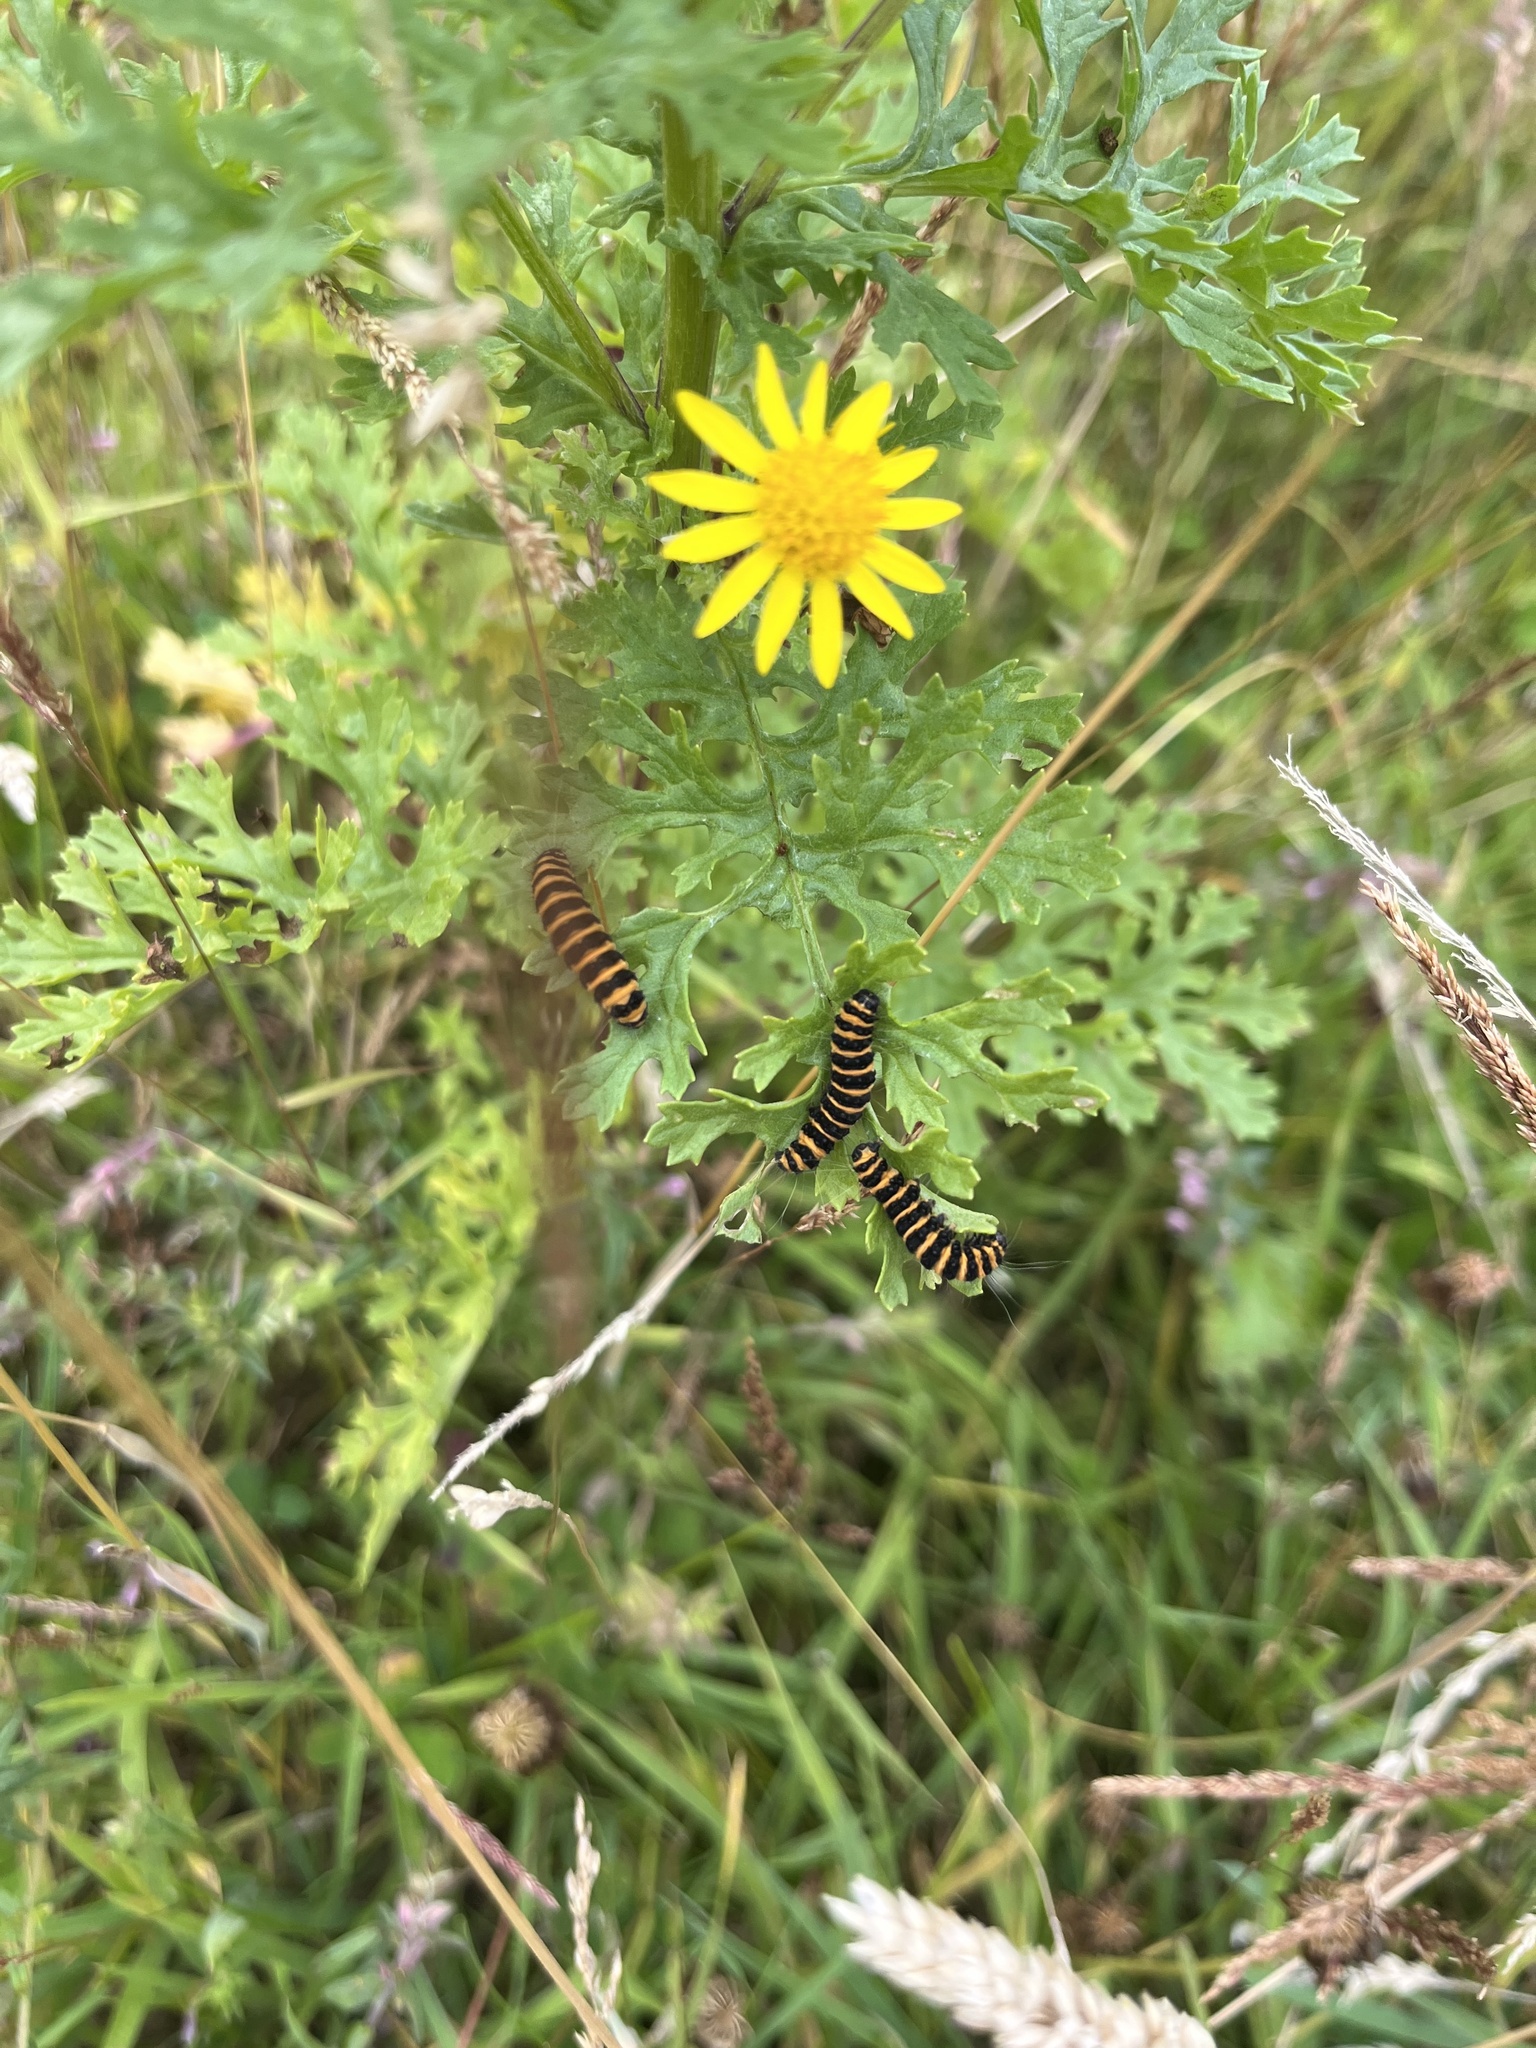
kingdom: Animalia
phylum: Arthropoda
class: Insecta
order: Lepidoptera
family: Erebidae
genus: Tyria
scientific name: Tyria jacobaeae
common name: Cinnabar
